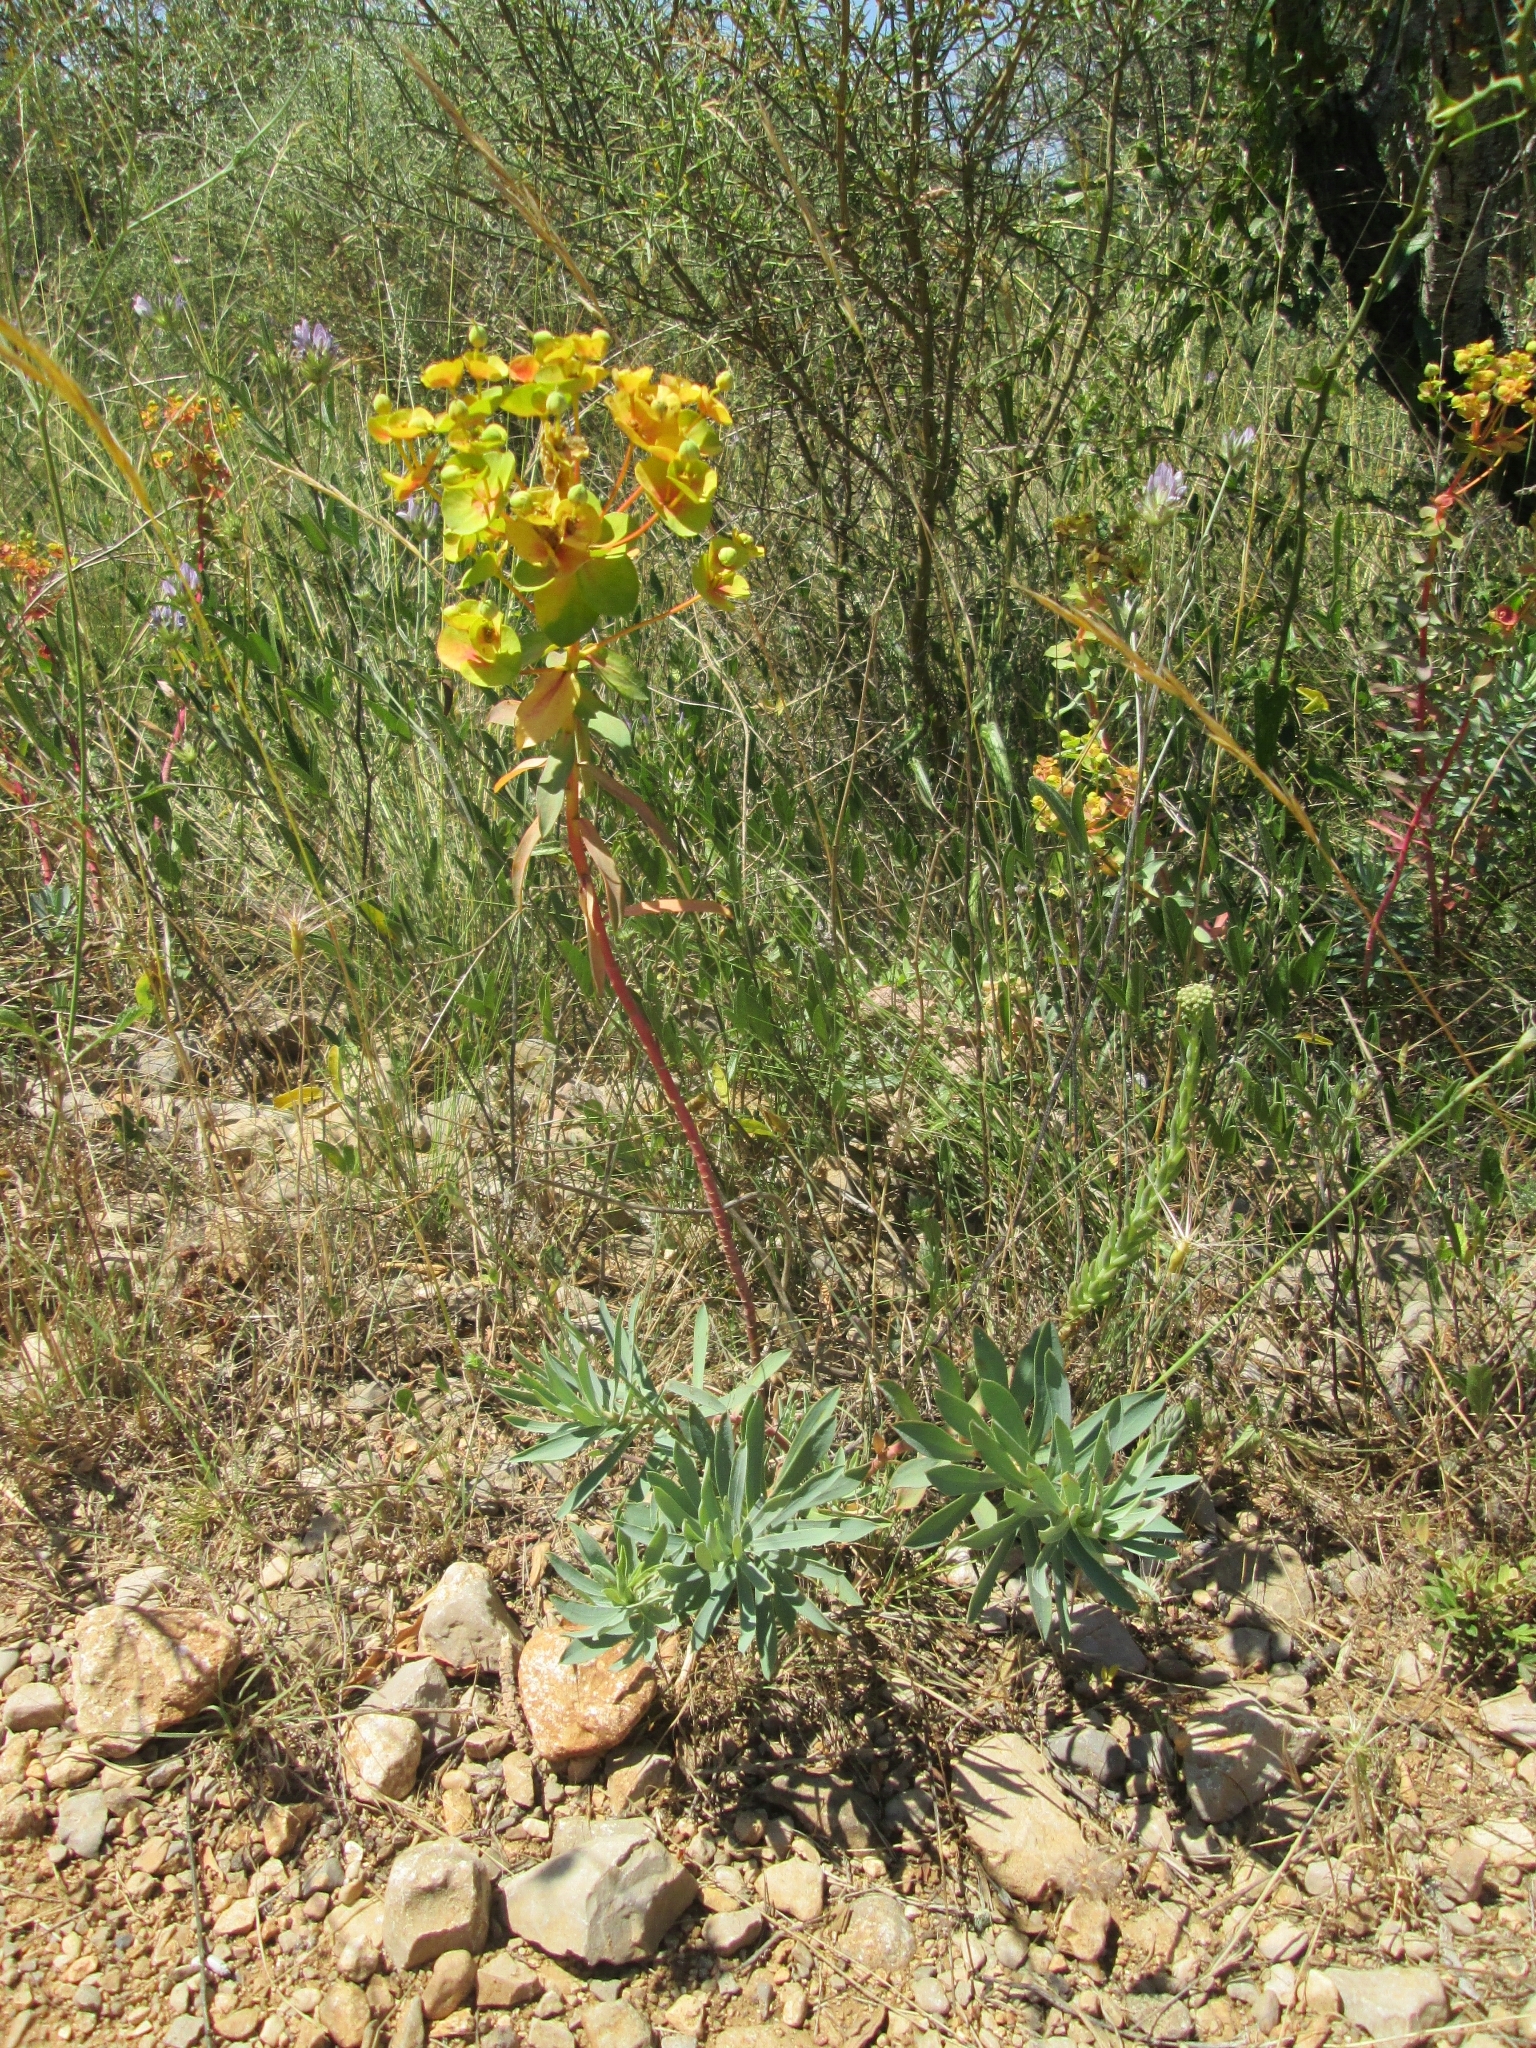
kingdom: Plantae
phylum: Tracheophyta
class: Magnoliopsida
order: Malpighiales
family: Euphorbiaceae
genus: Euphorbia
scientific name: Euphorbia nicaeensis
